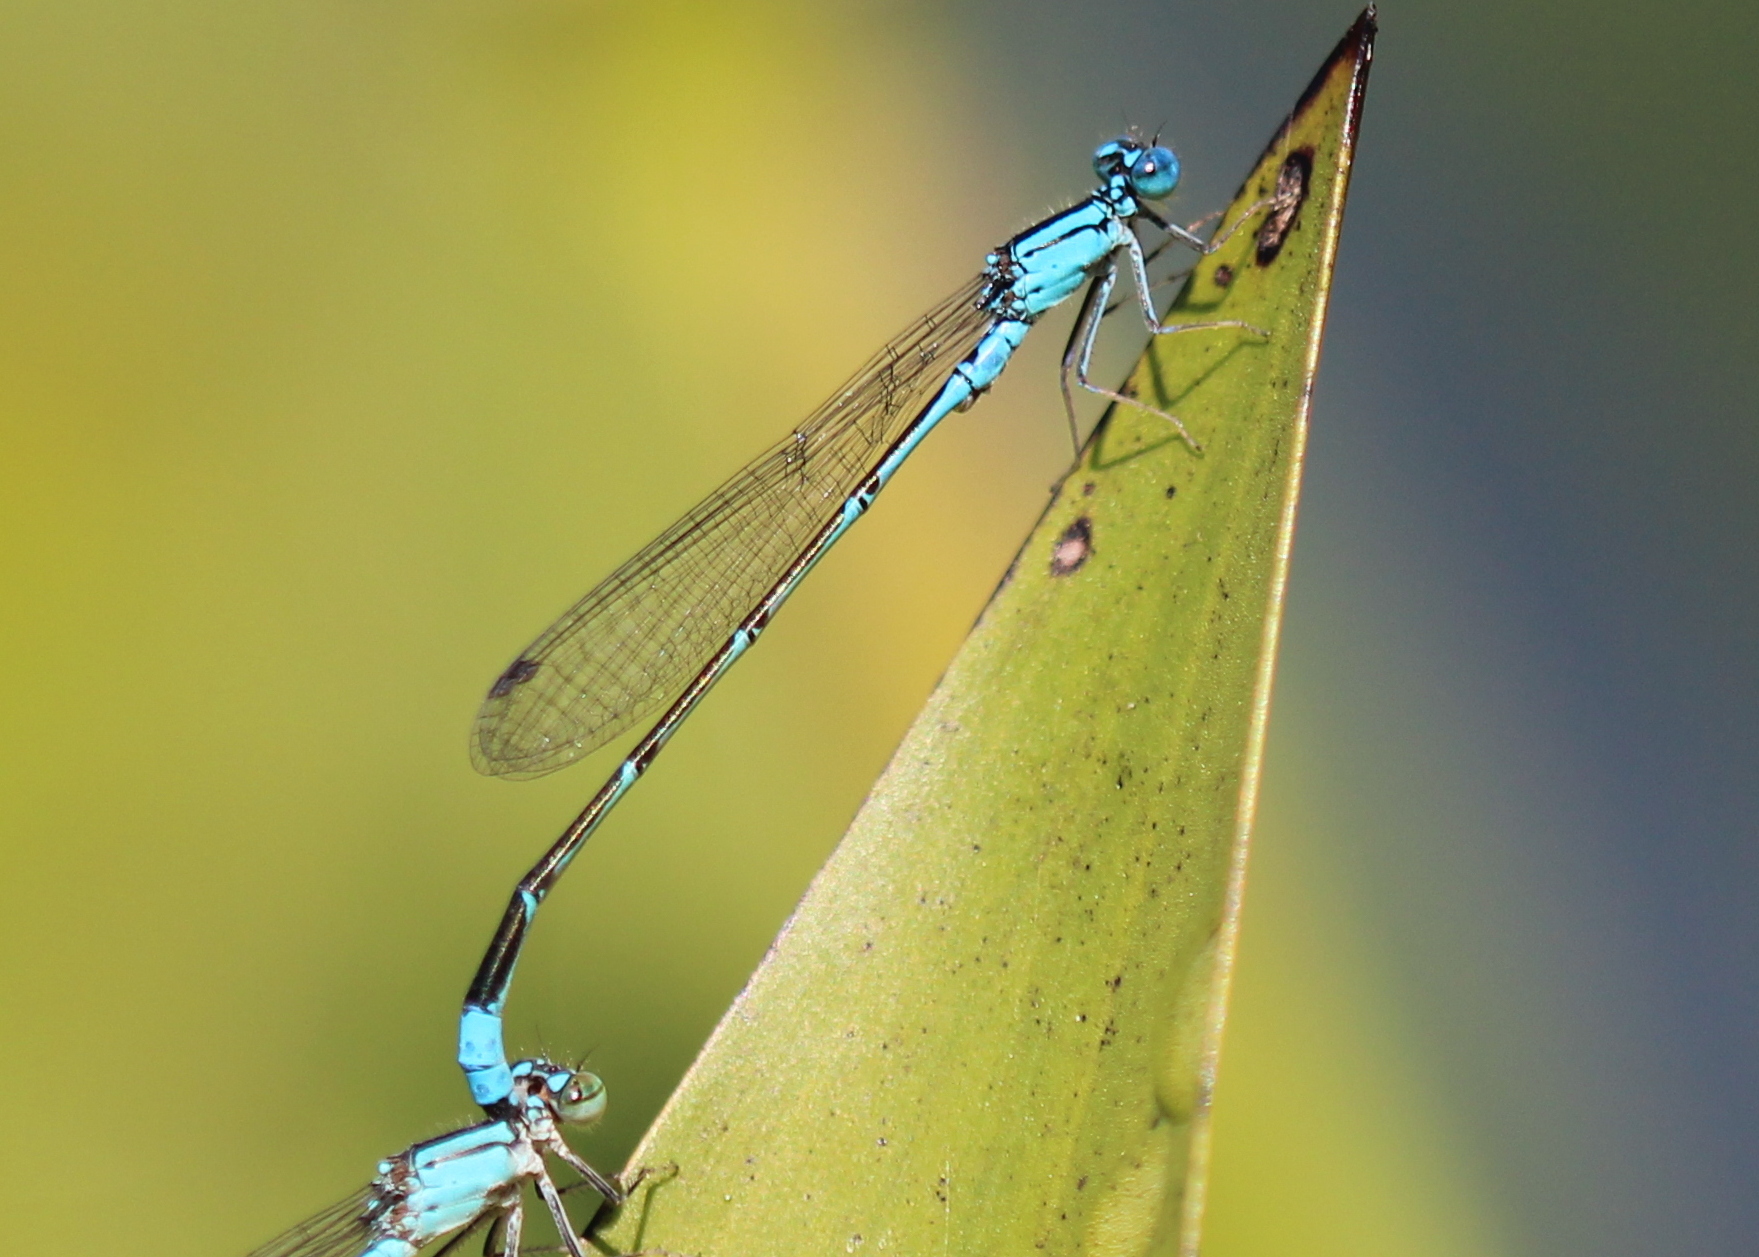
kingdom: Animalia
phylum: Arthropoda
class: Insecta
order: Odonata
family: Coenagrionidae
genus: Enallagma
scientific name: Enallagma traviatum
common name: Slender bluet
